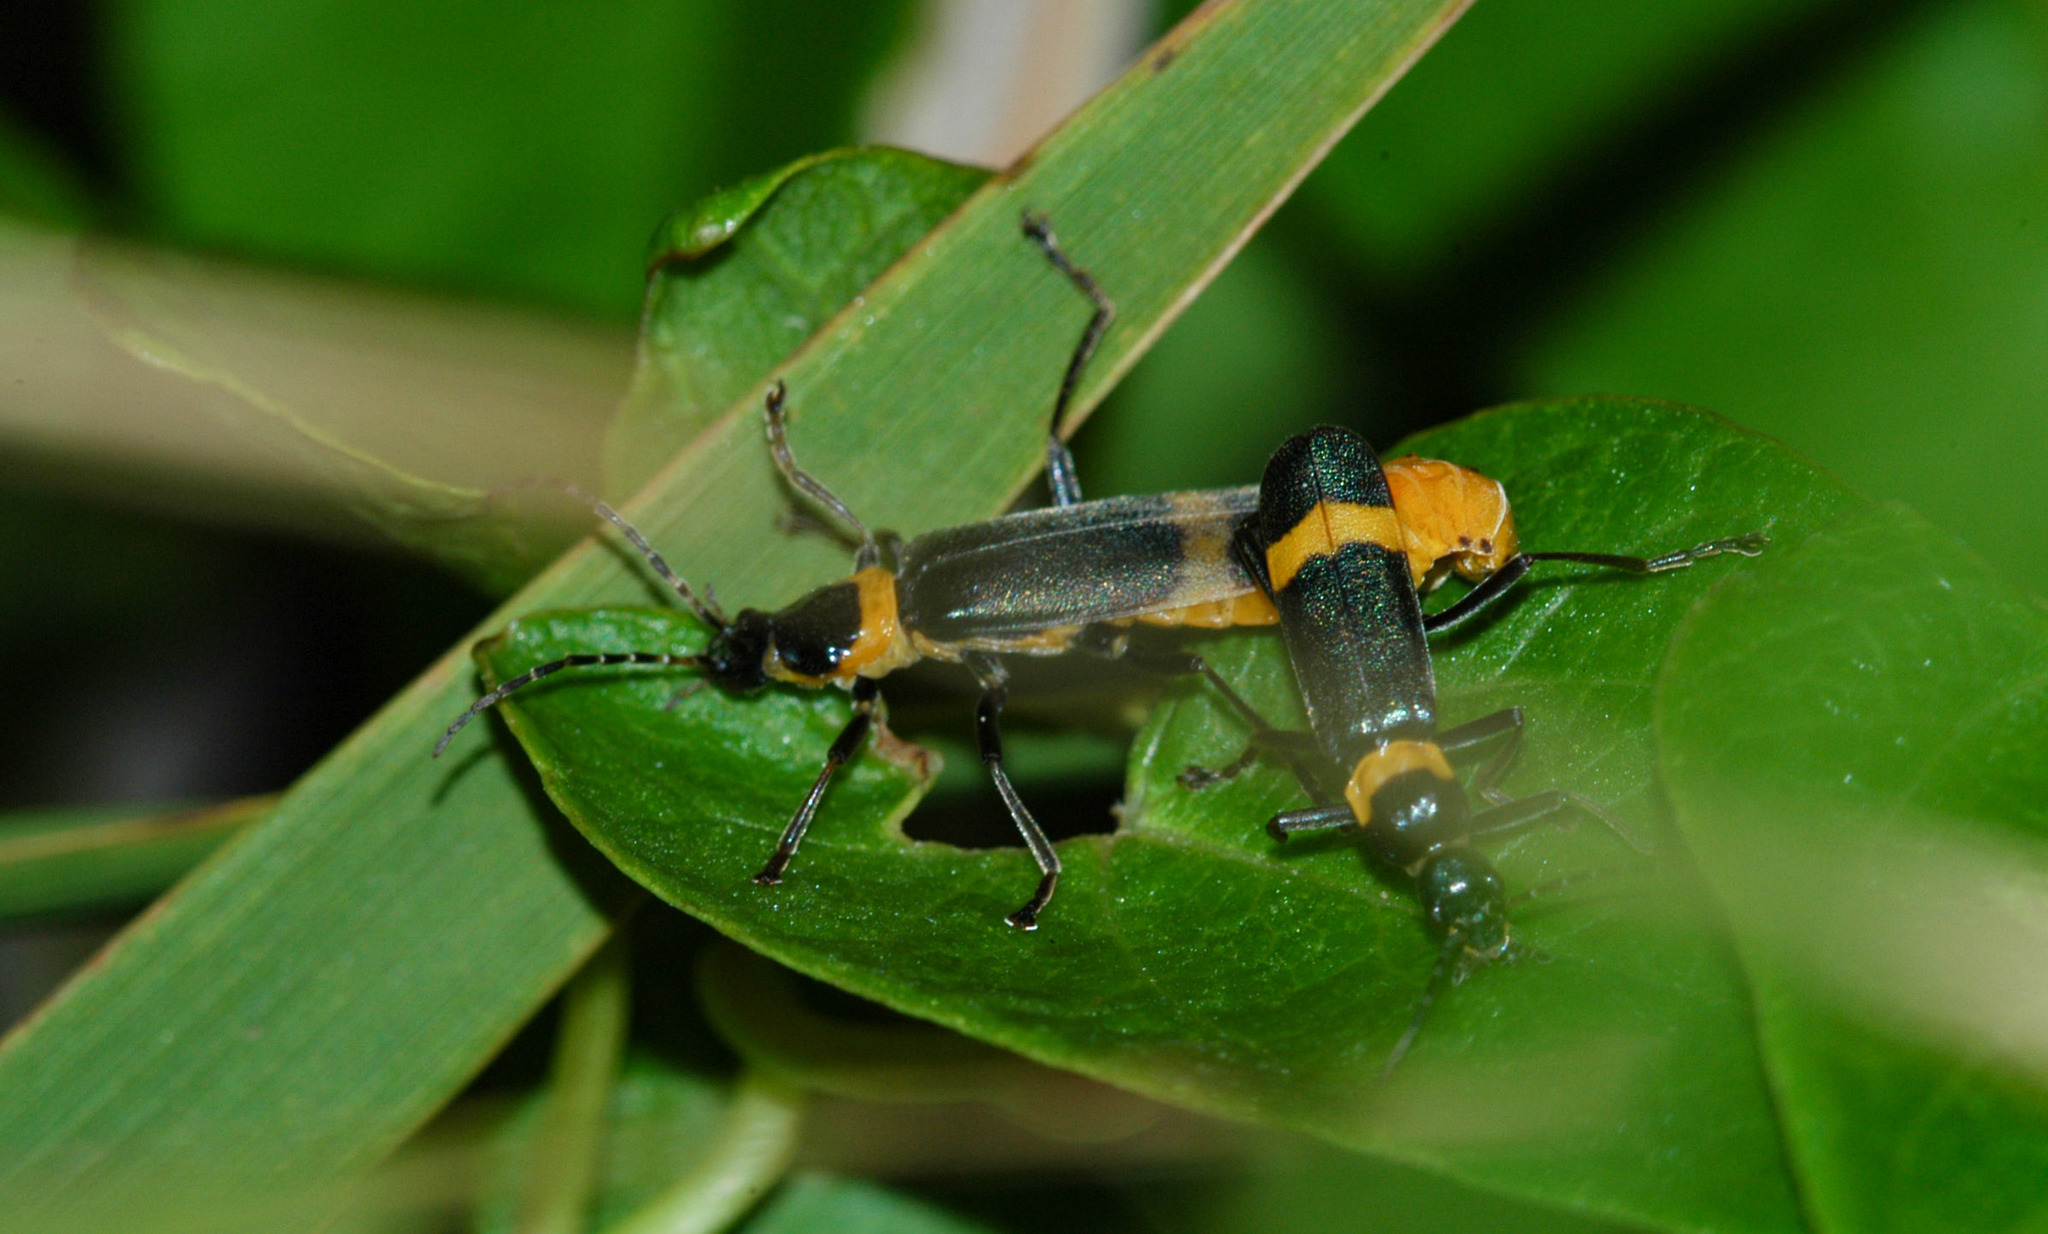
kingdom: Animalia
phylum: Arthropoda
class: Insecta
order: Coleoptera
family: Cantharidae
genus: Chauliognathus
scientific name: Chauliognathus
